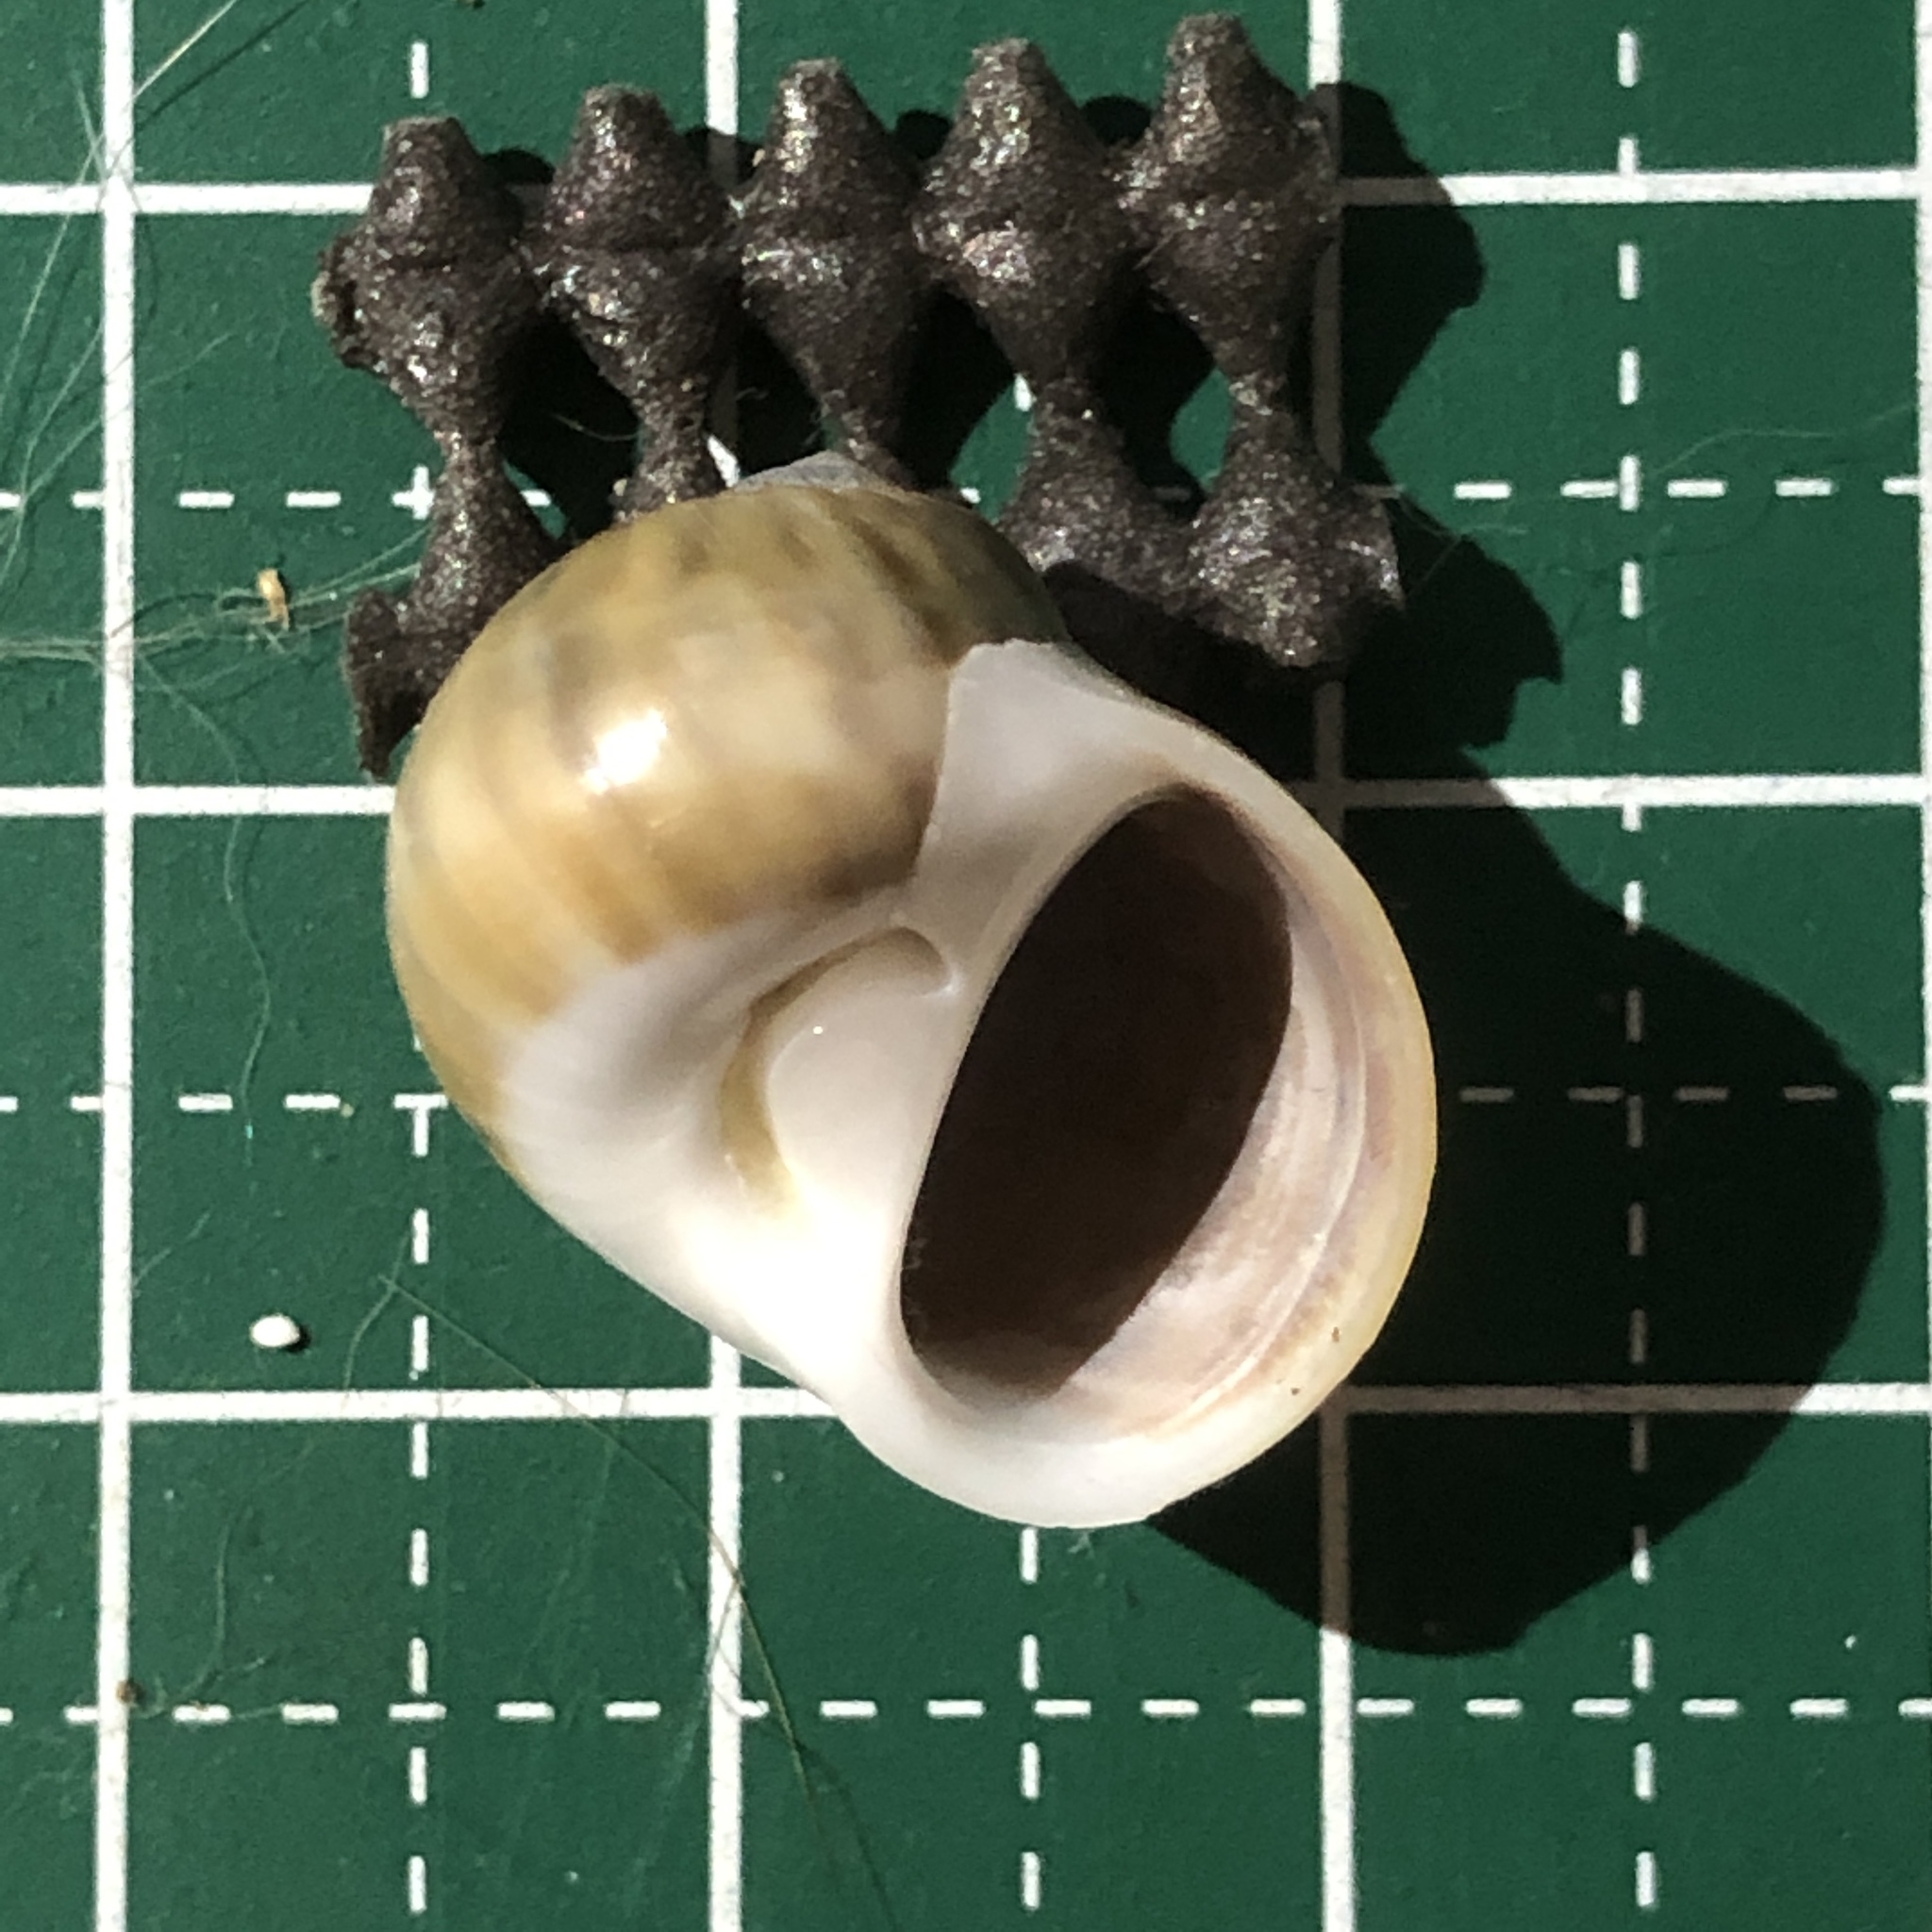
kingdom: Animalia
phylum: Mollusca
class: Gastropoda
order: Littorinimorpha
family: Naticidae
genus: Notocochlis
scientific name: Notocochlis gualteriana
